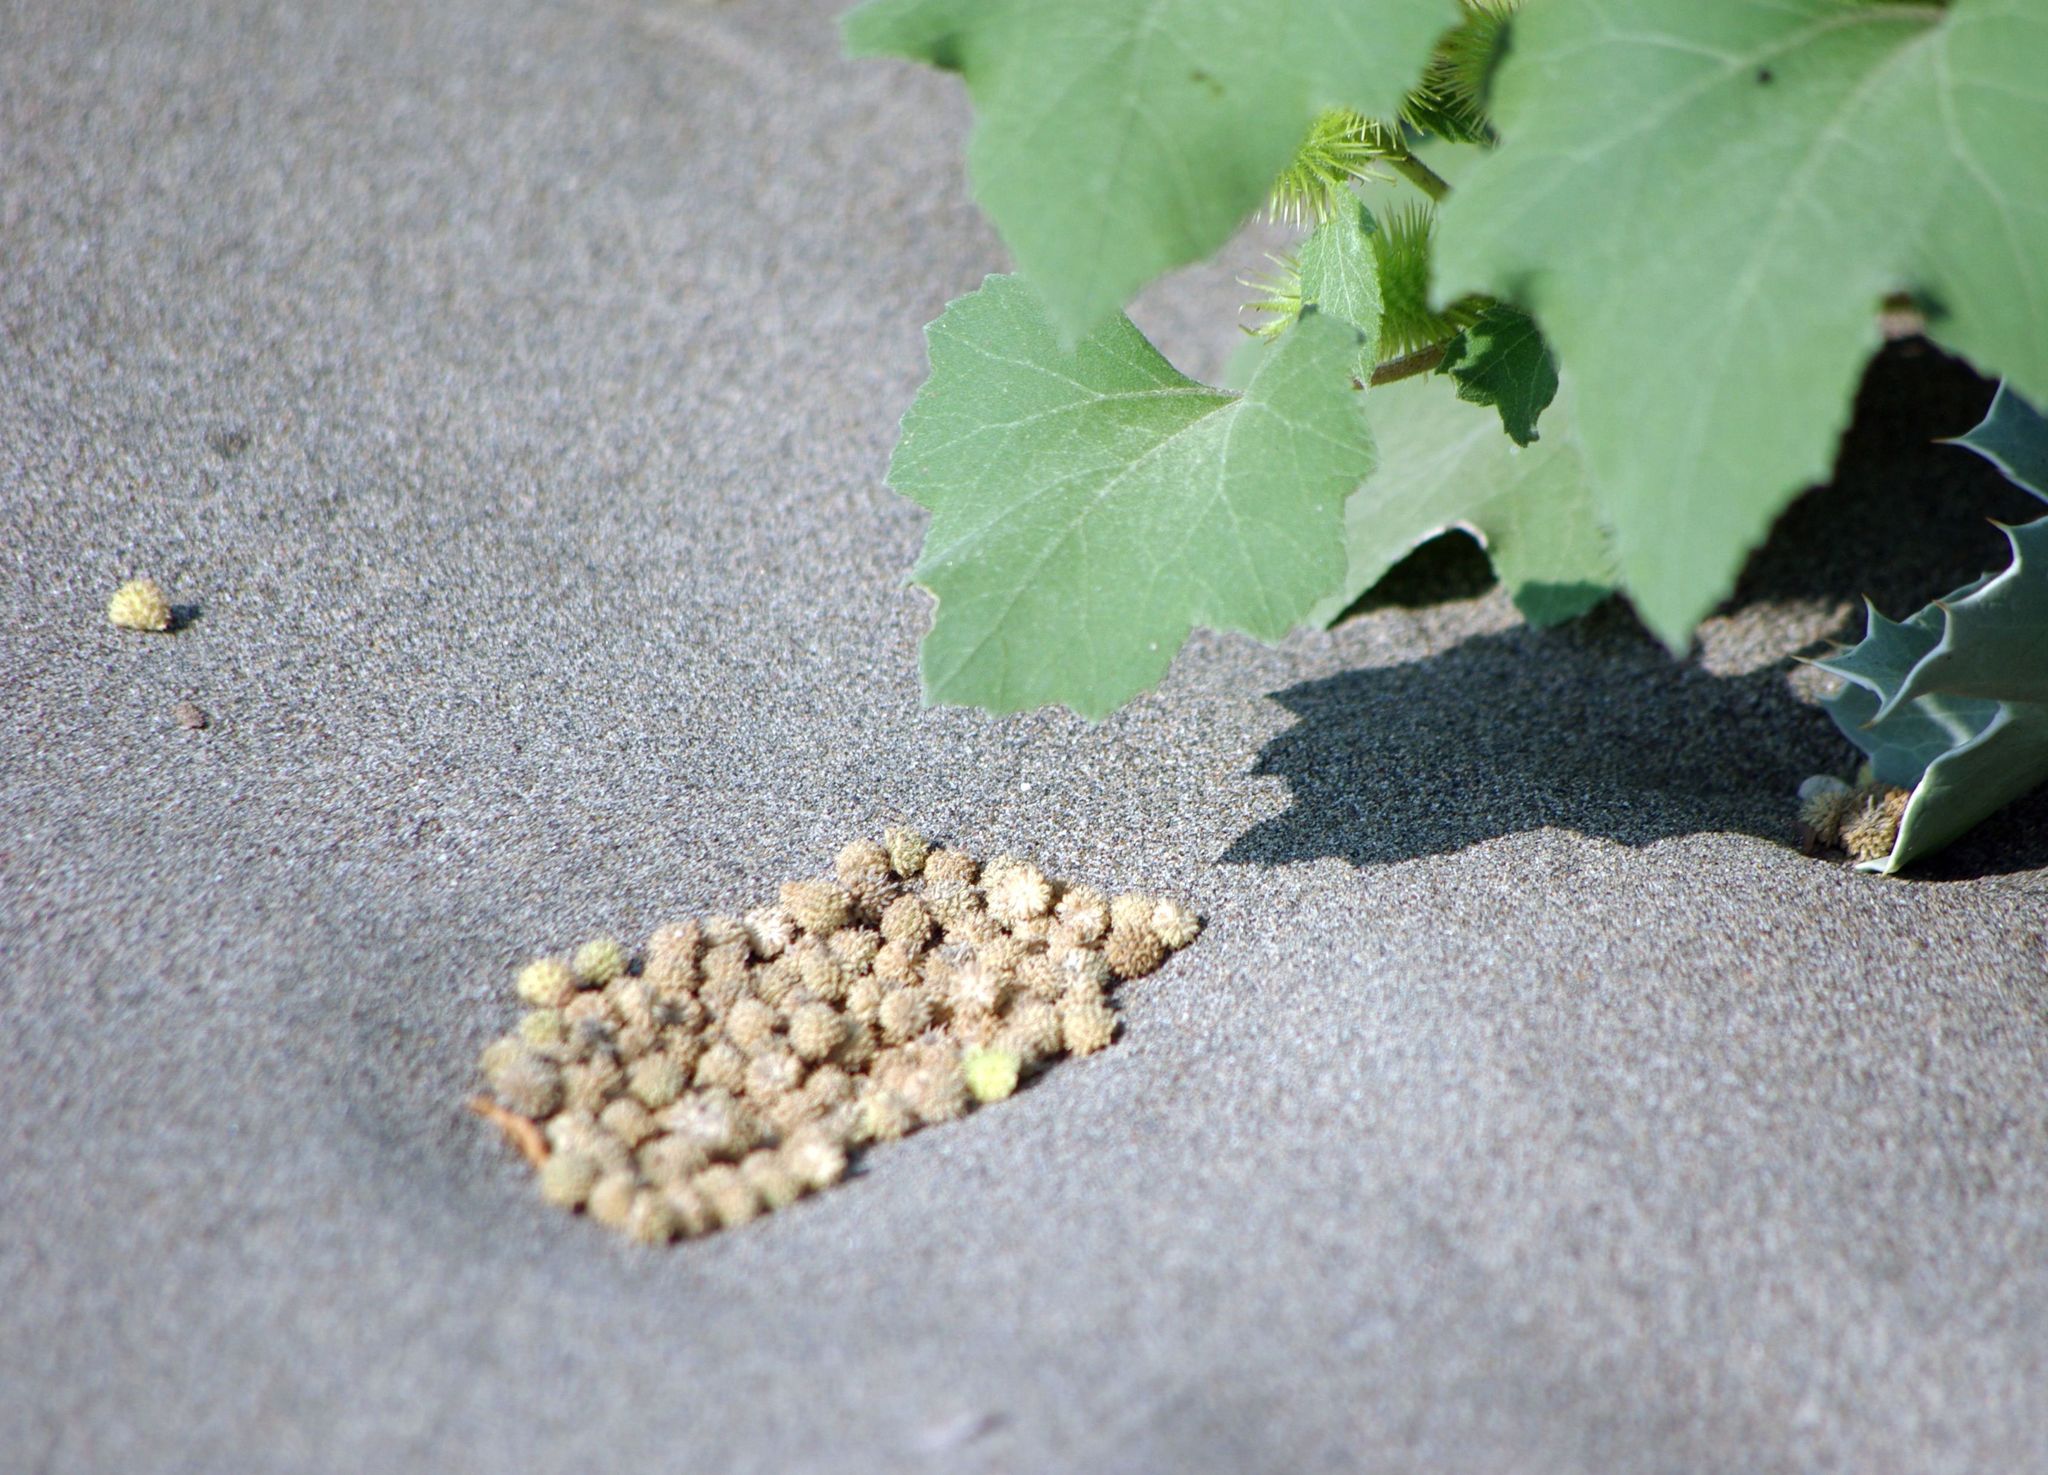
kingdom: Plantae
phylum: Tracheophyta
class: Magnoliopsida
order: Asterales
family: Asteraceae
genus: Xanthium
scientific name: Xanthium strumarium
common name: Rough cocklebur
